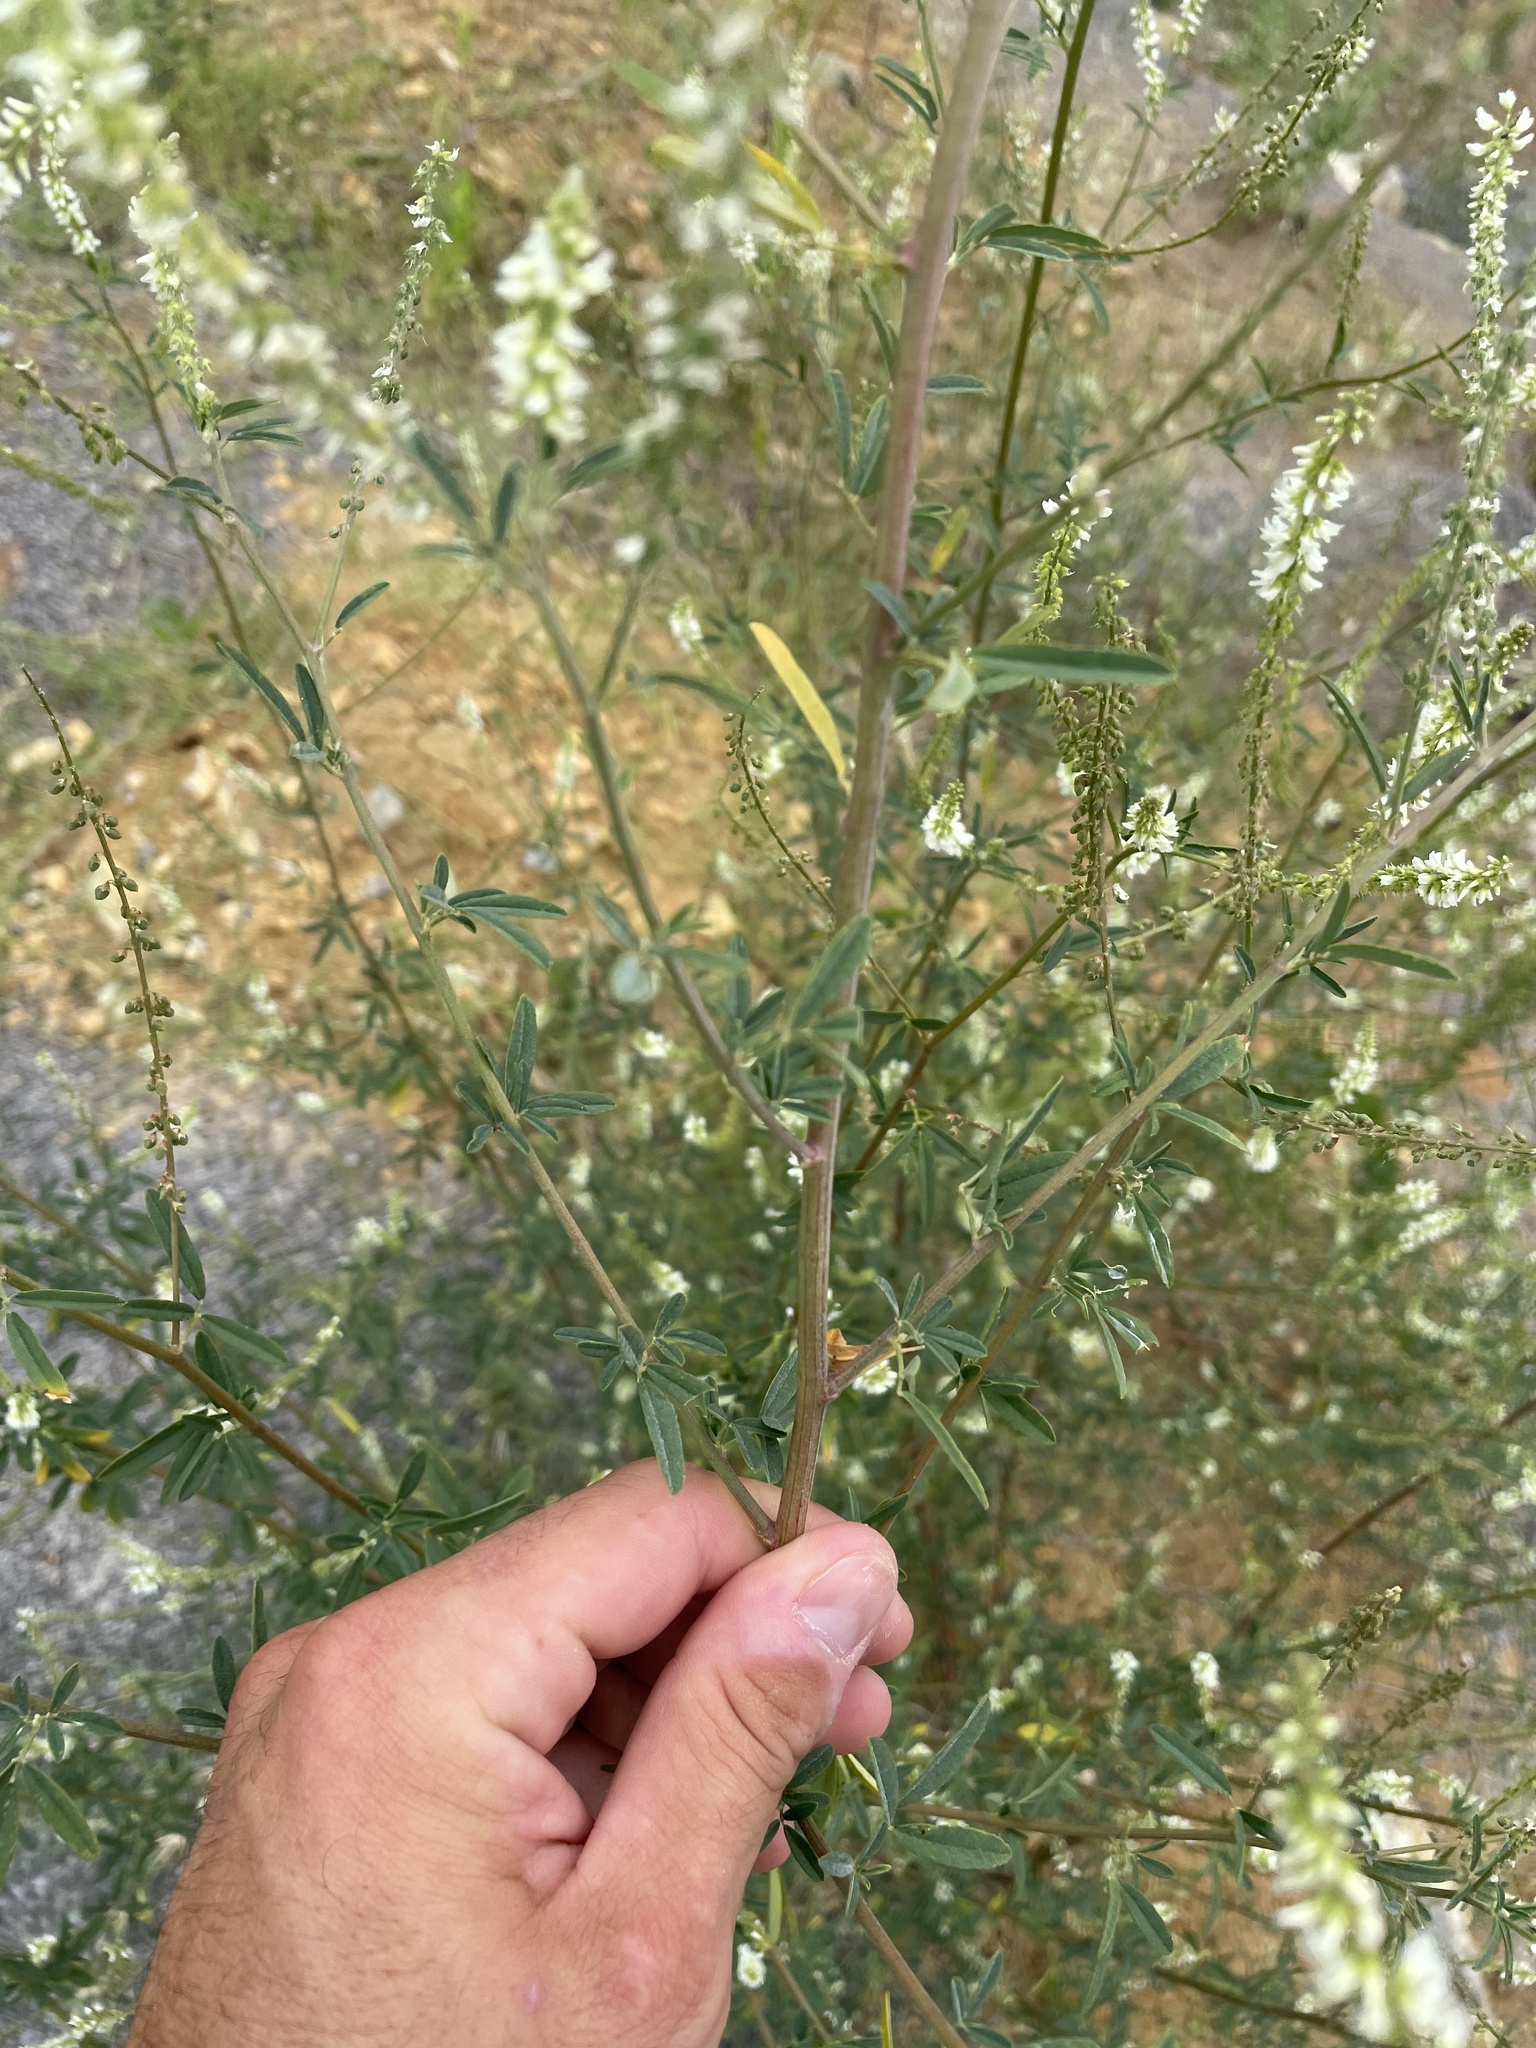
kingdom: Plantae
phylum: Tracheophyta
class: Magnoliopsida
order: Fabales
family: Fabaceae
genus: Melilotus
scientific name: Melilotus albus
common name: White melilot
